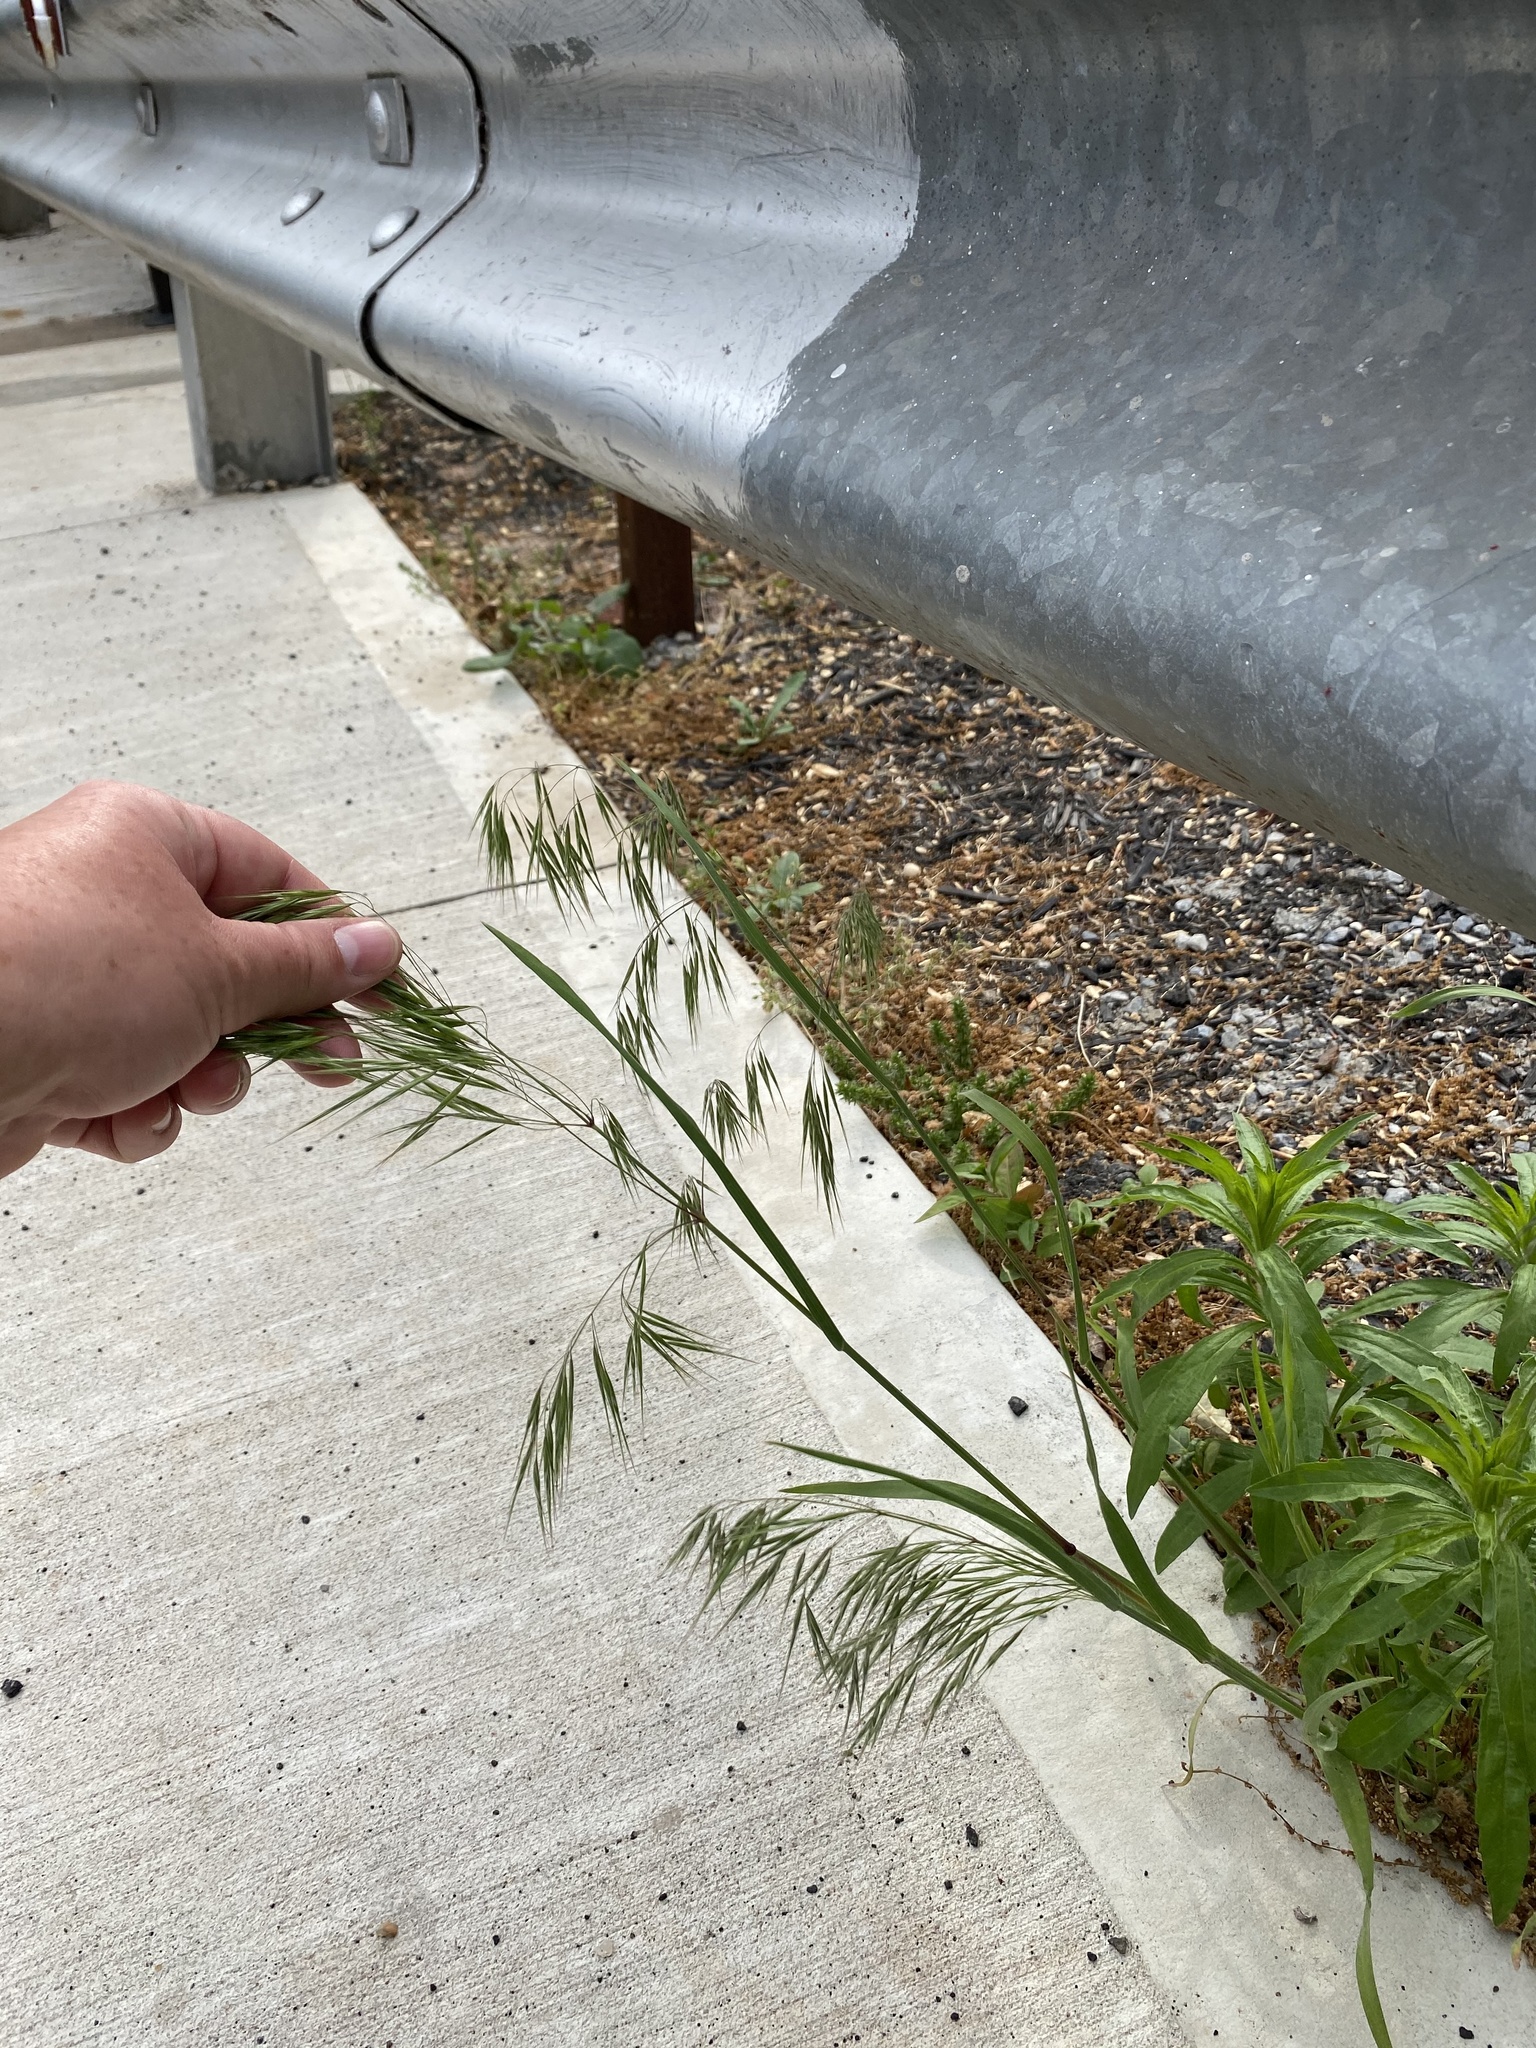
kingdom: Plantae
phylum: Tracheophyta
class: Liliopsida
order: Poales
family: Poaceae
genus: Bromus
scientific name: Bromus tectorum
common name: Cheatgrass
